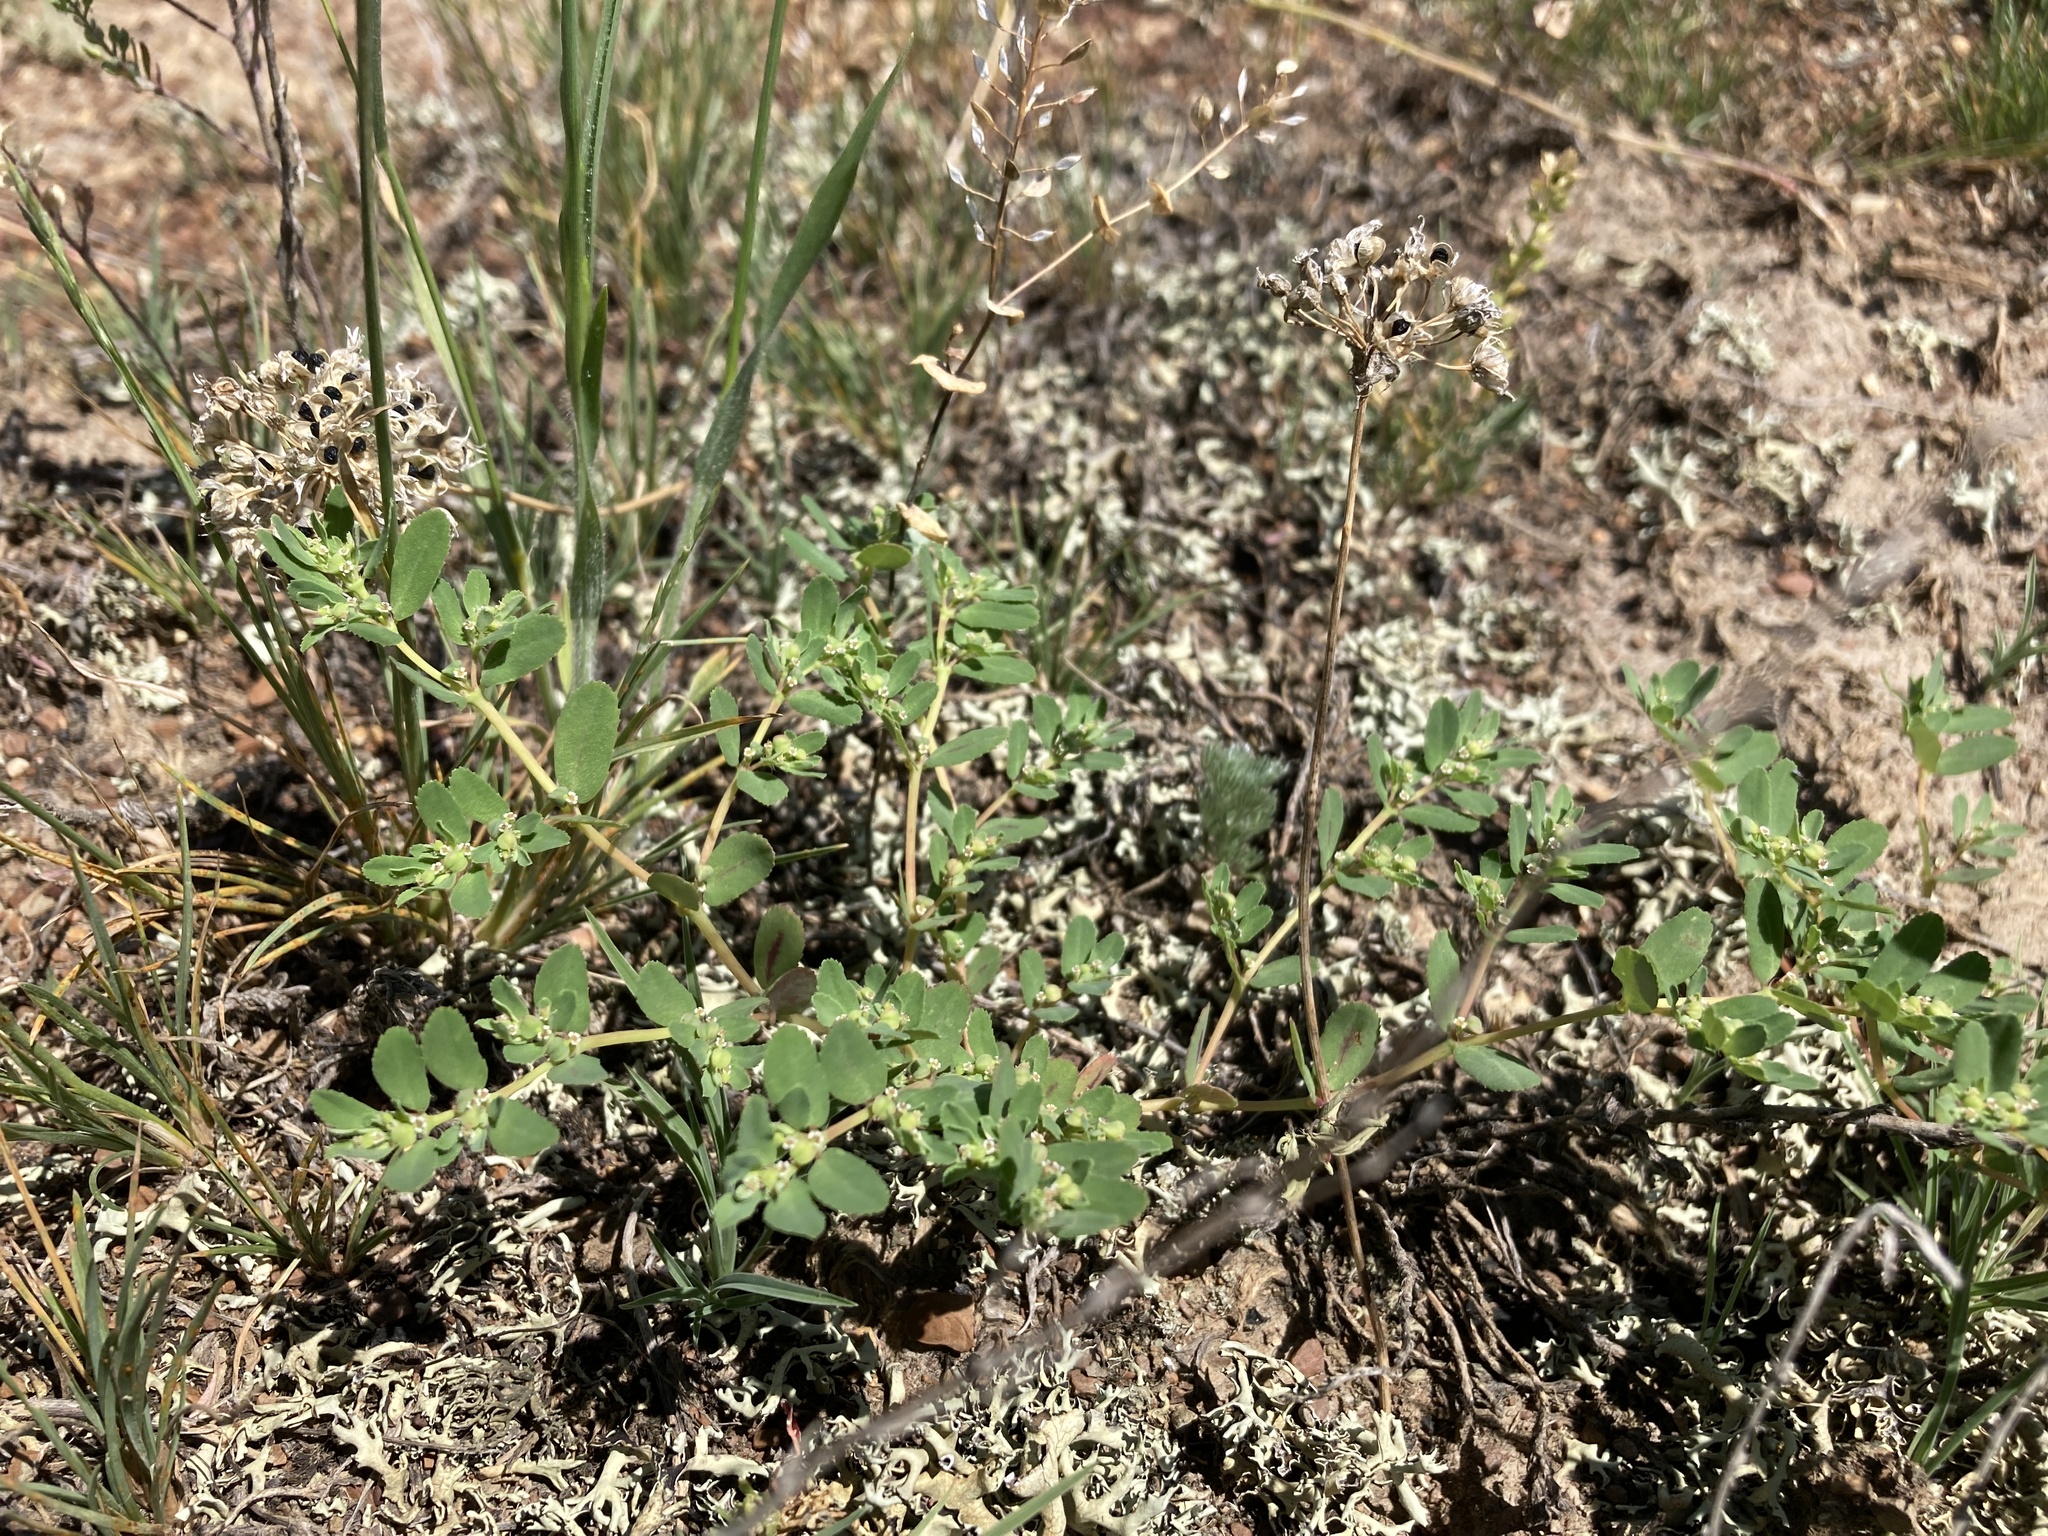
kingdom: Plantae
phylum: Tracheophyta
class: Magnoliopsida
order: Malpighiales
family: Euphorbiaceae
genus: Euphorbia
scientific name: Euphorbia serpillifolia
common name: Thyme-leaf spurge
